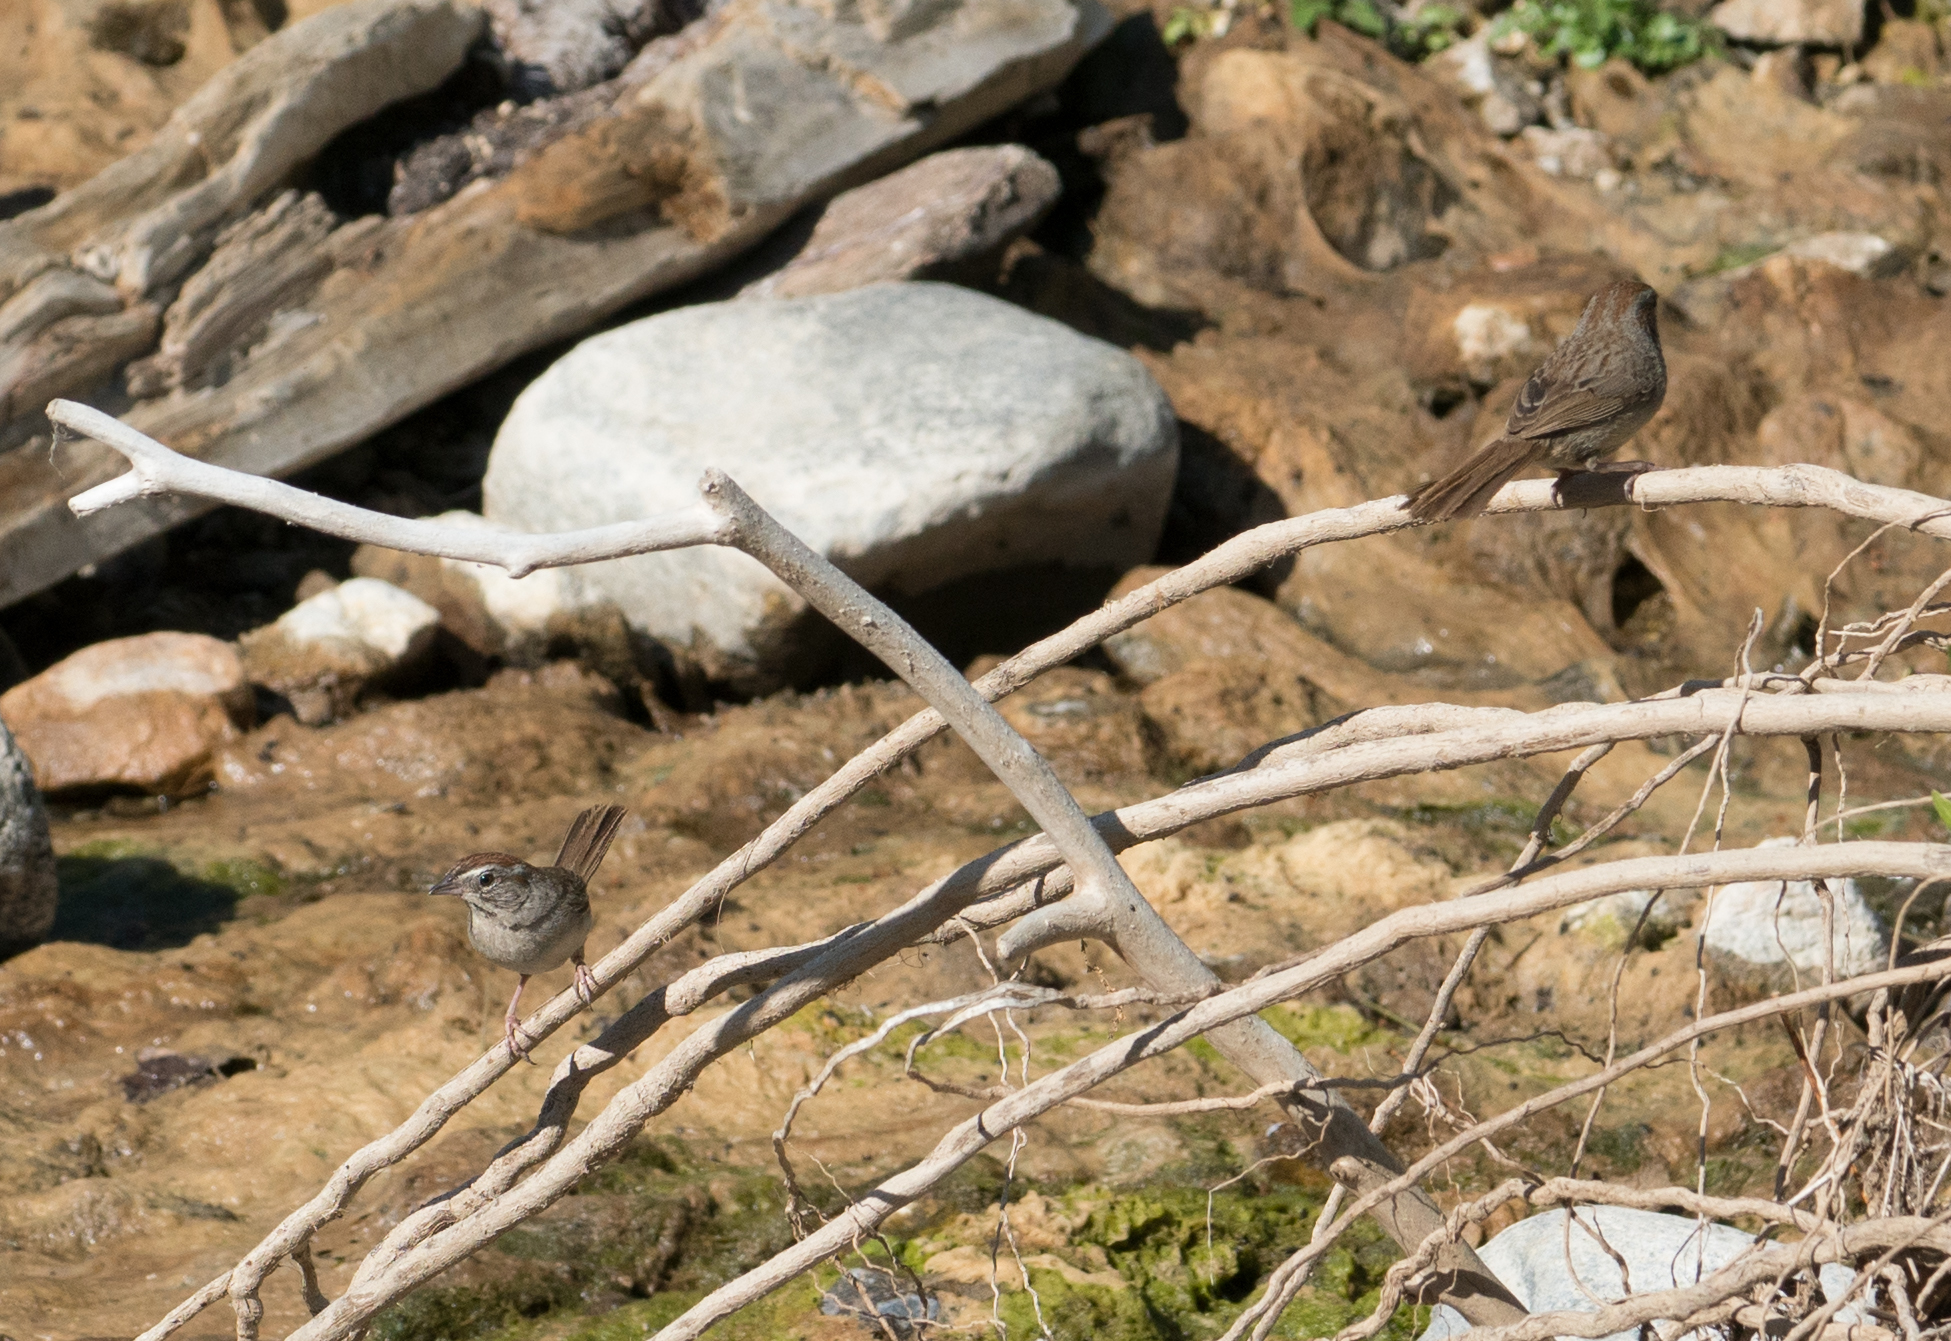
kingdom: Animalia
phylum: Chordata
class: Aves
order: Passeriformes
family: Passerellidae
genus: Aimophila
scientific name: Aimophila ruficeps
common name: Rufous-crowned sparrow
